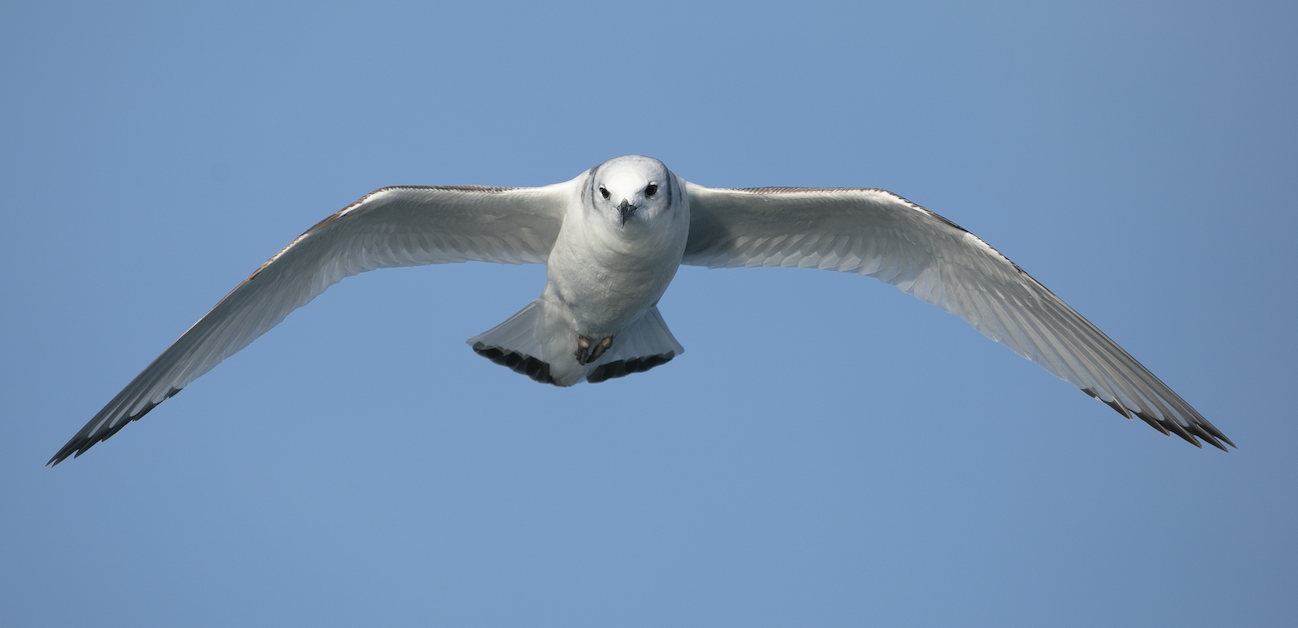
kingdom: Animalia
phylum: Chordata
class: Aves
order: Charadriiformes
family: Laridae
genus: Rissa
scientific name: Rissa tridactyla
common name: Black-legged kittiwake
